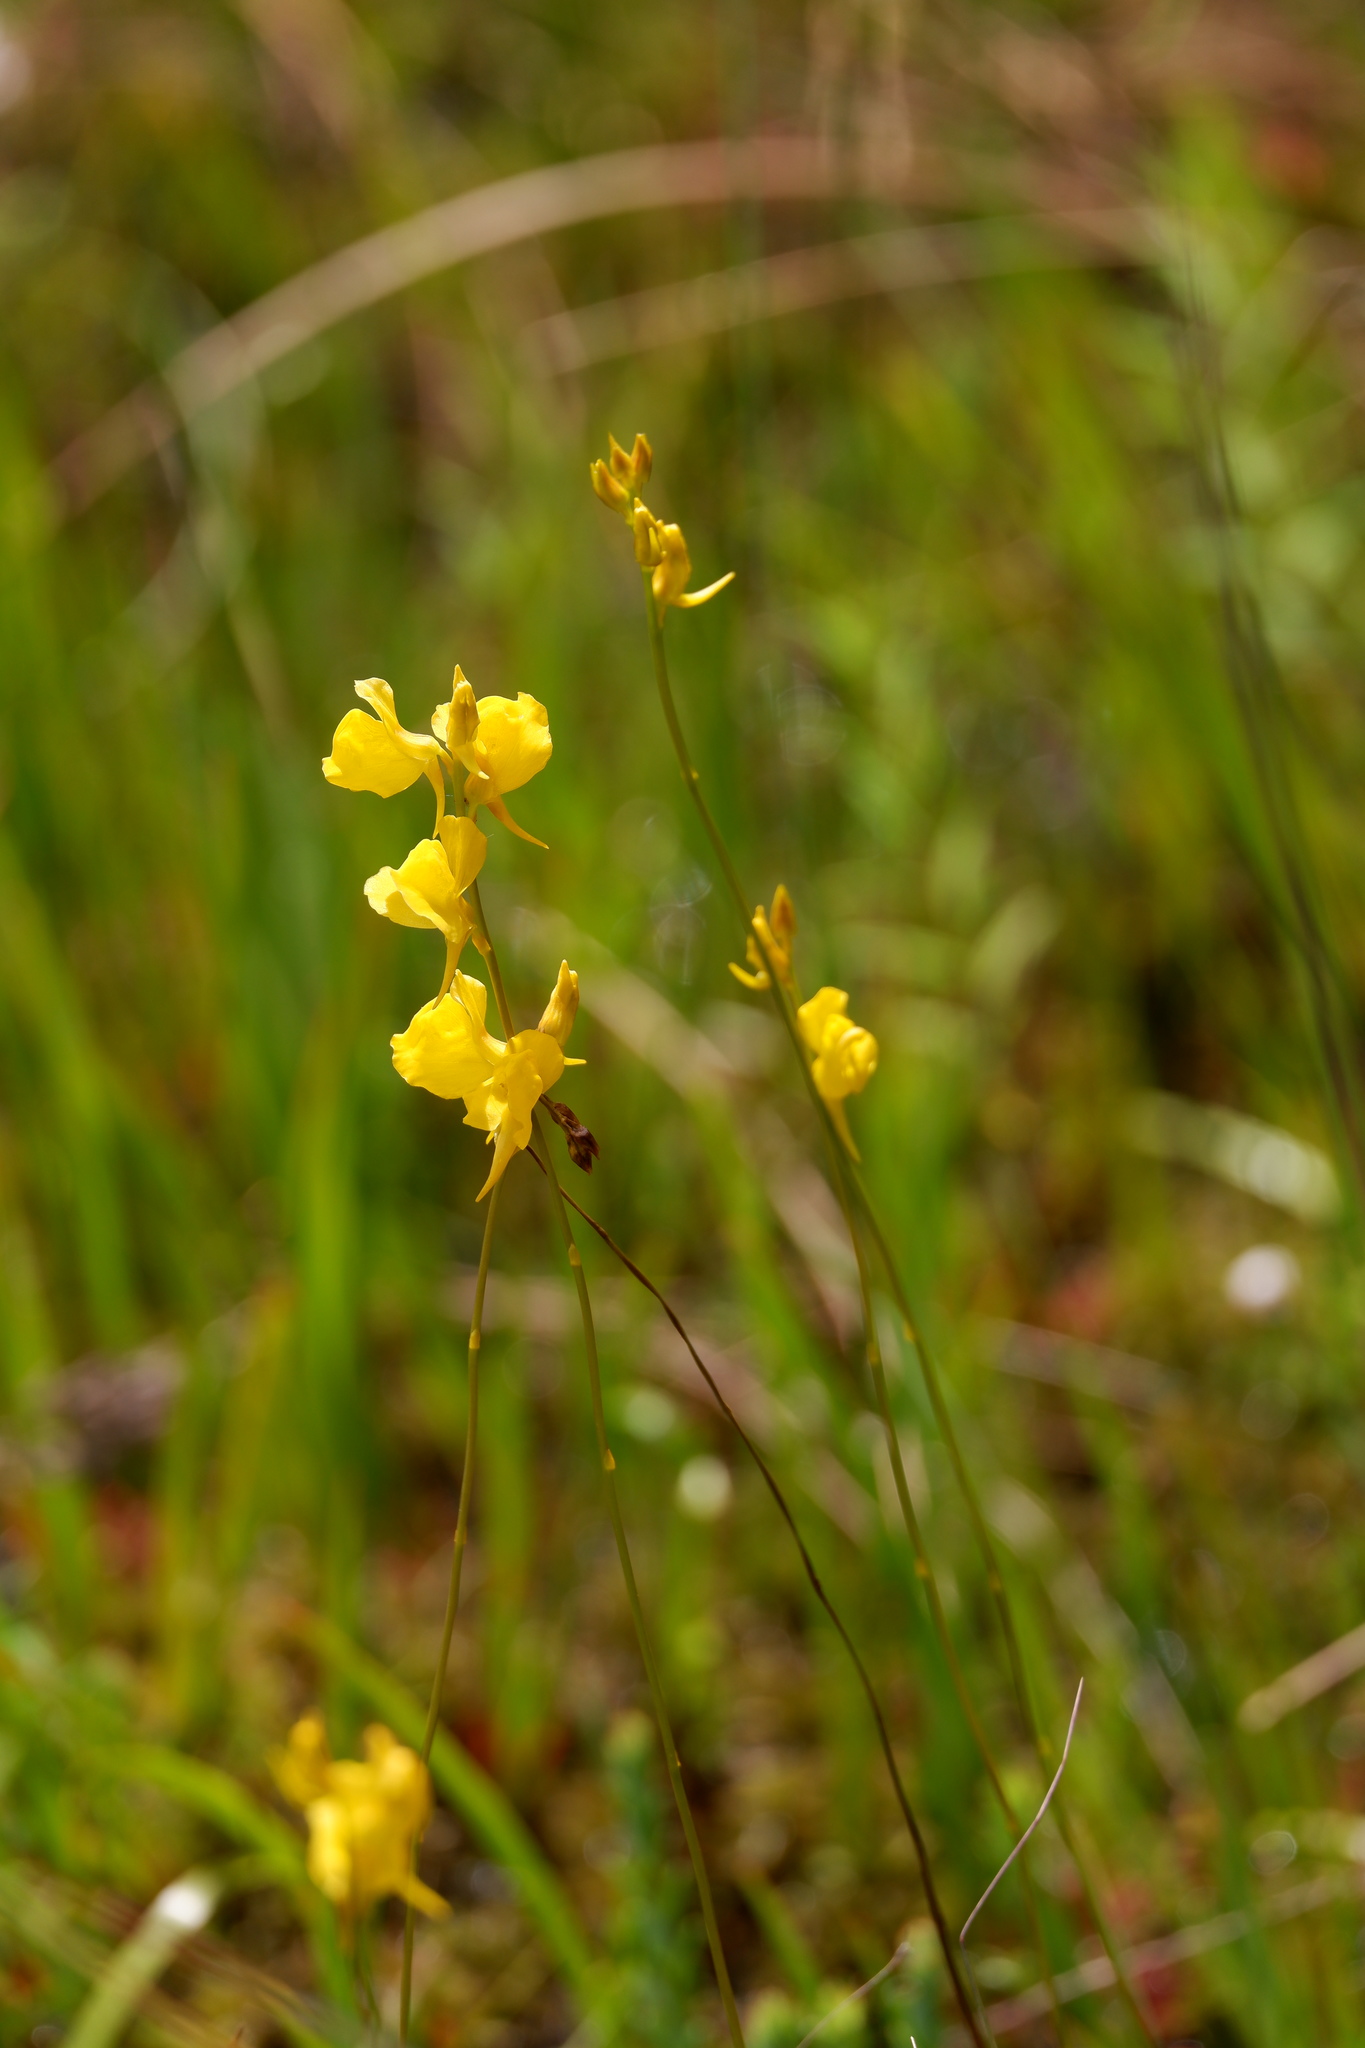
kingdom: Plantae
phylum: Tracheophyta
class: Magnoliopsida
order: Lamiales
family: Lentibulariaceae
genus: Utricularia
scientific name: Utricularia cornuta
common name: Horned bladderwort
